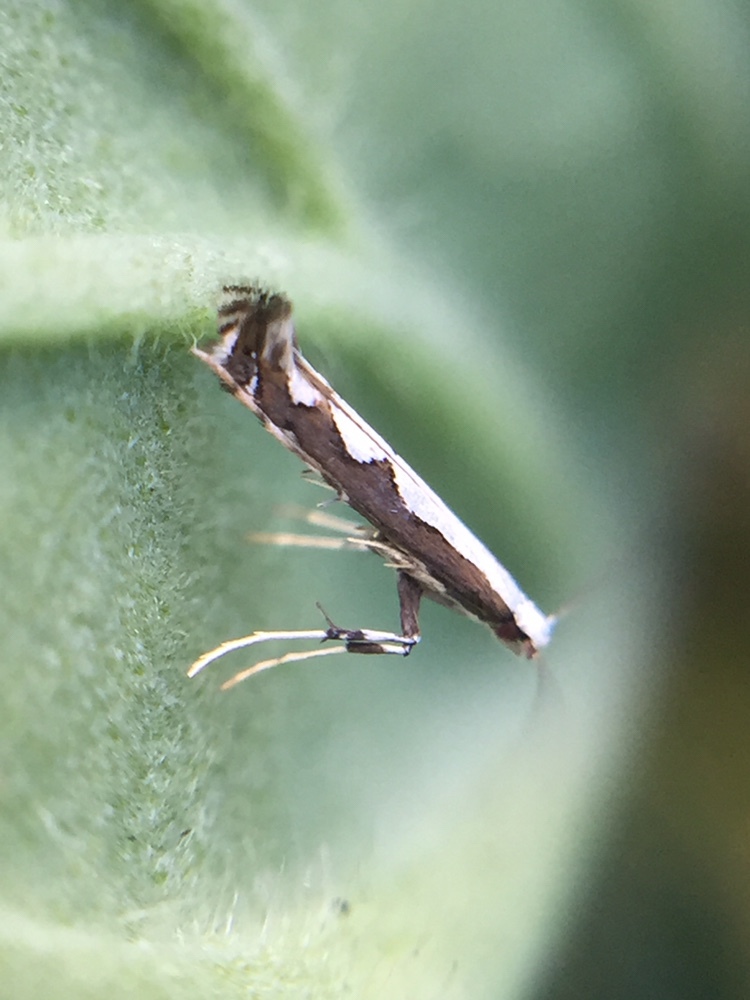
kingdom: Animalia
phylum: Arthropoda
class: Insecta
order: Lepidoptera
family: Gracillariidae
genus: Dialectica
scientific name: Dialectica scalariella
